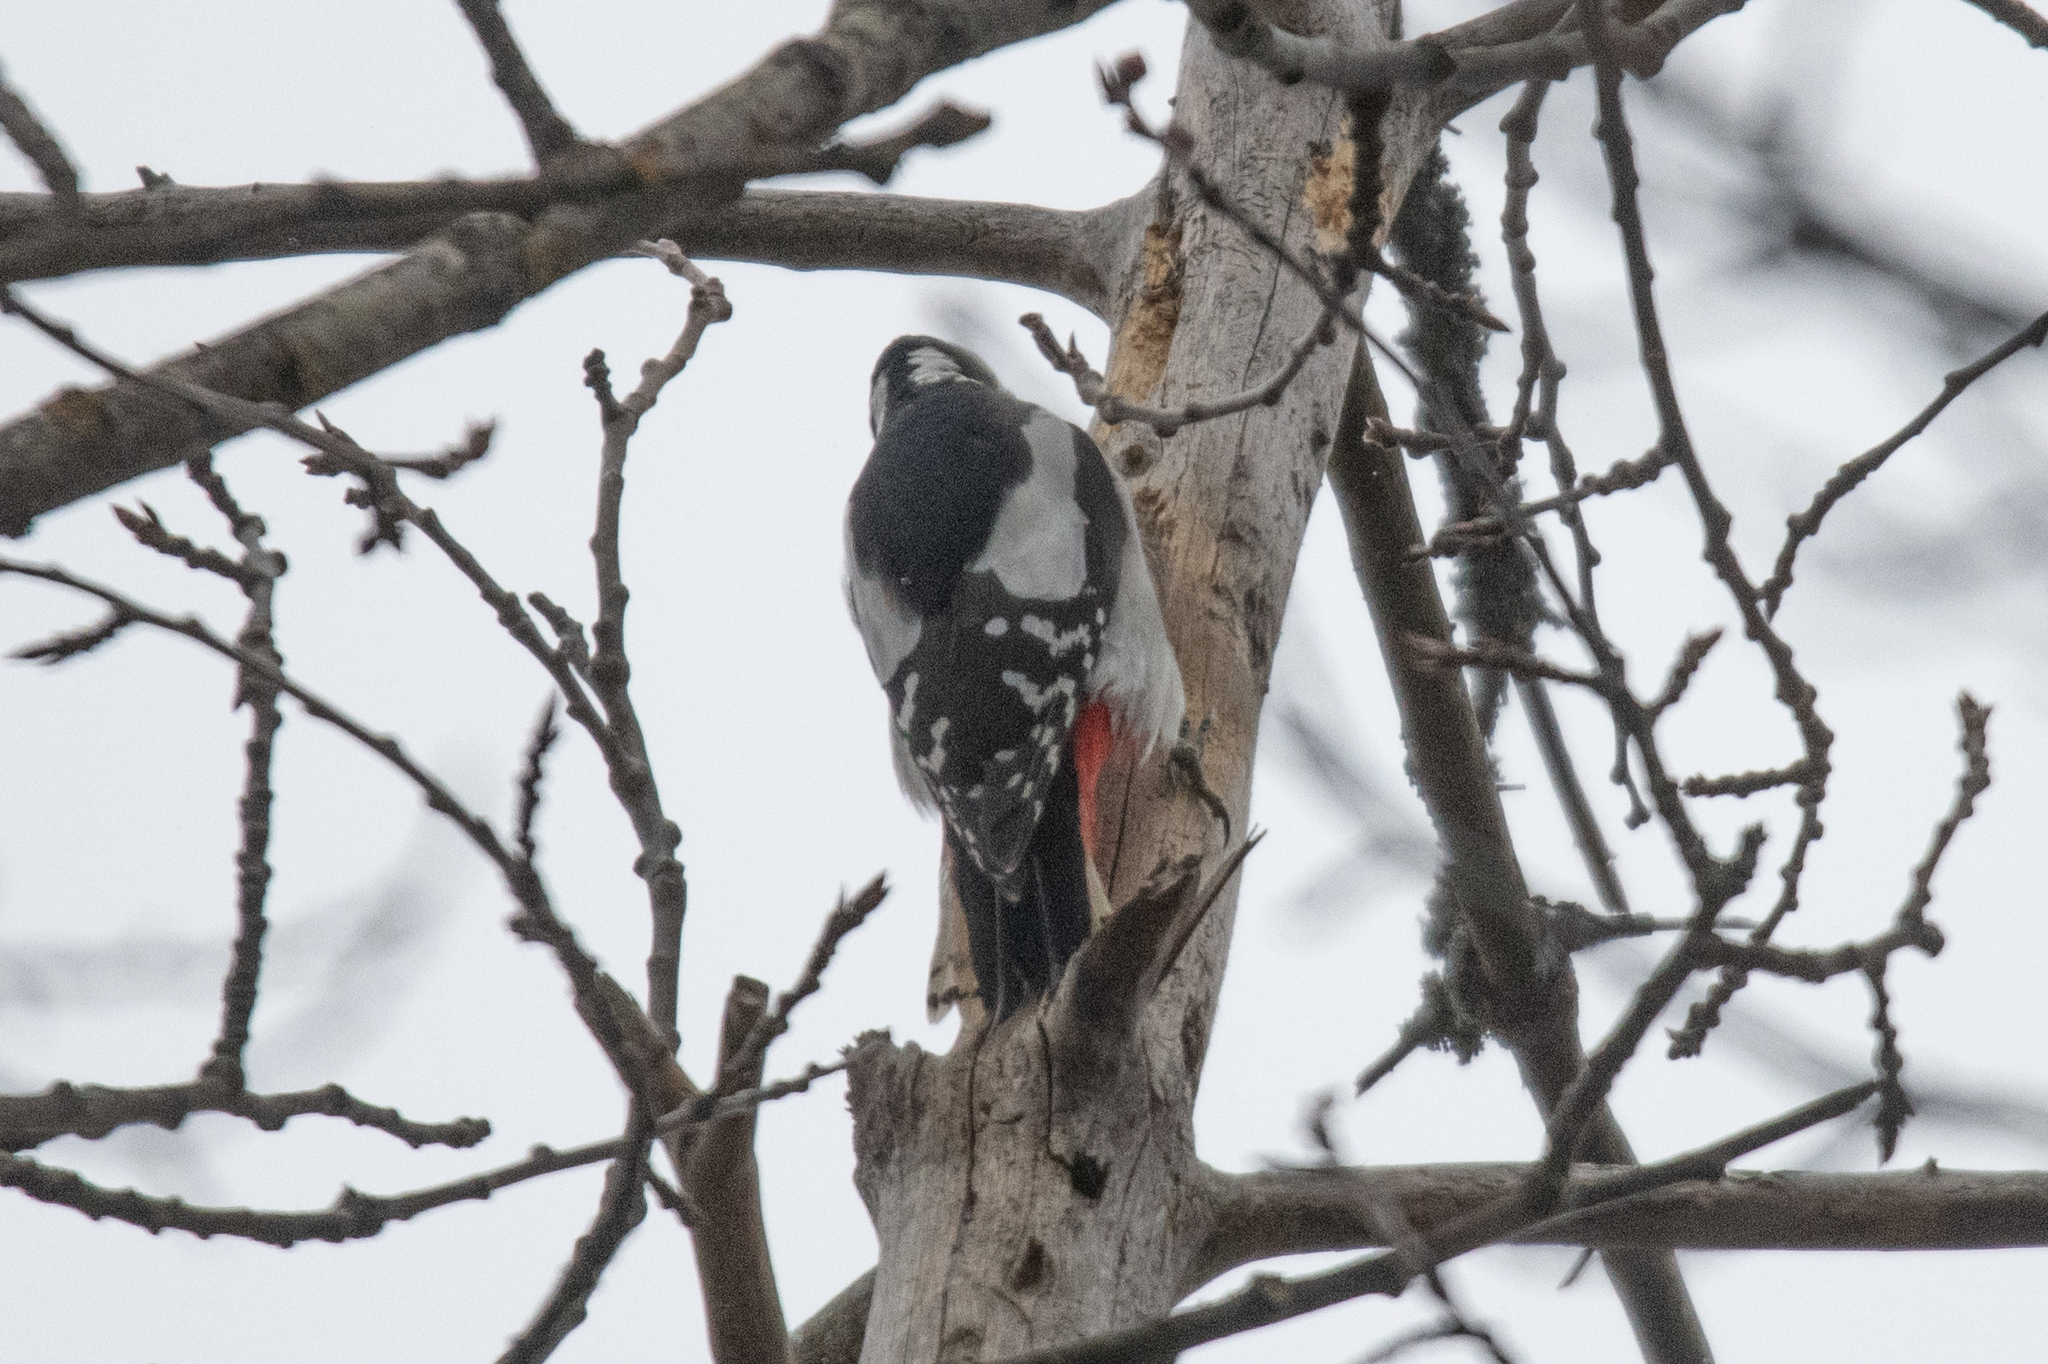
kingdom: Animalia
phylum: Chordata
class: Aves
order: Piciformes
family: Picidae
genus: Dendrocopos
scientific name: Dendrocopos major
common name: Great spotted woodpecker
